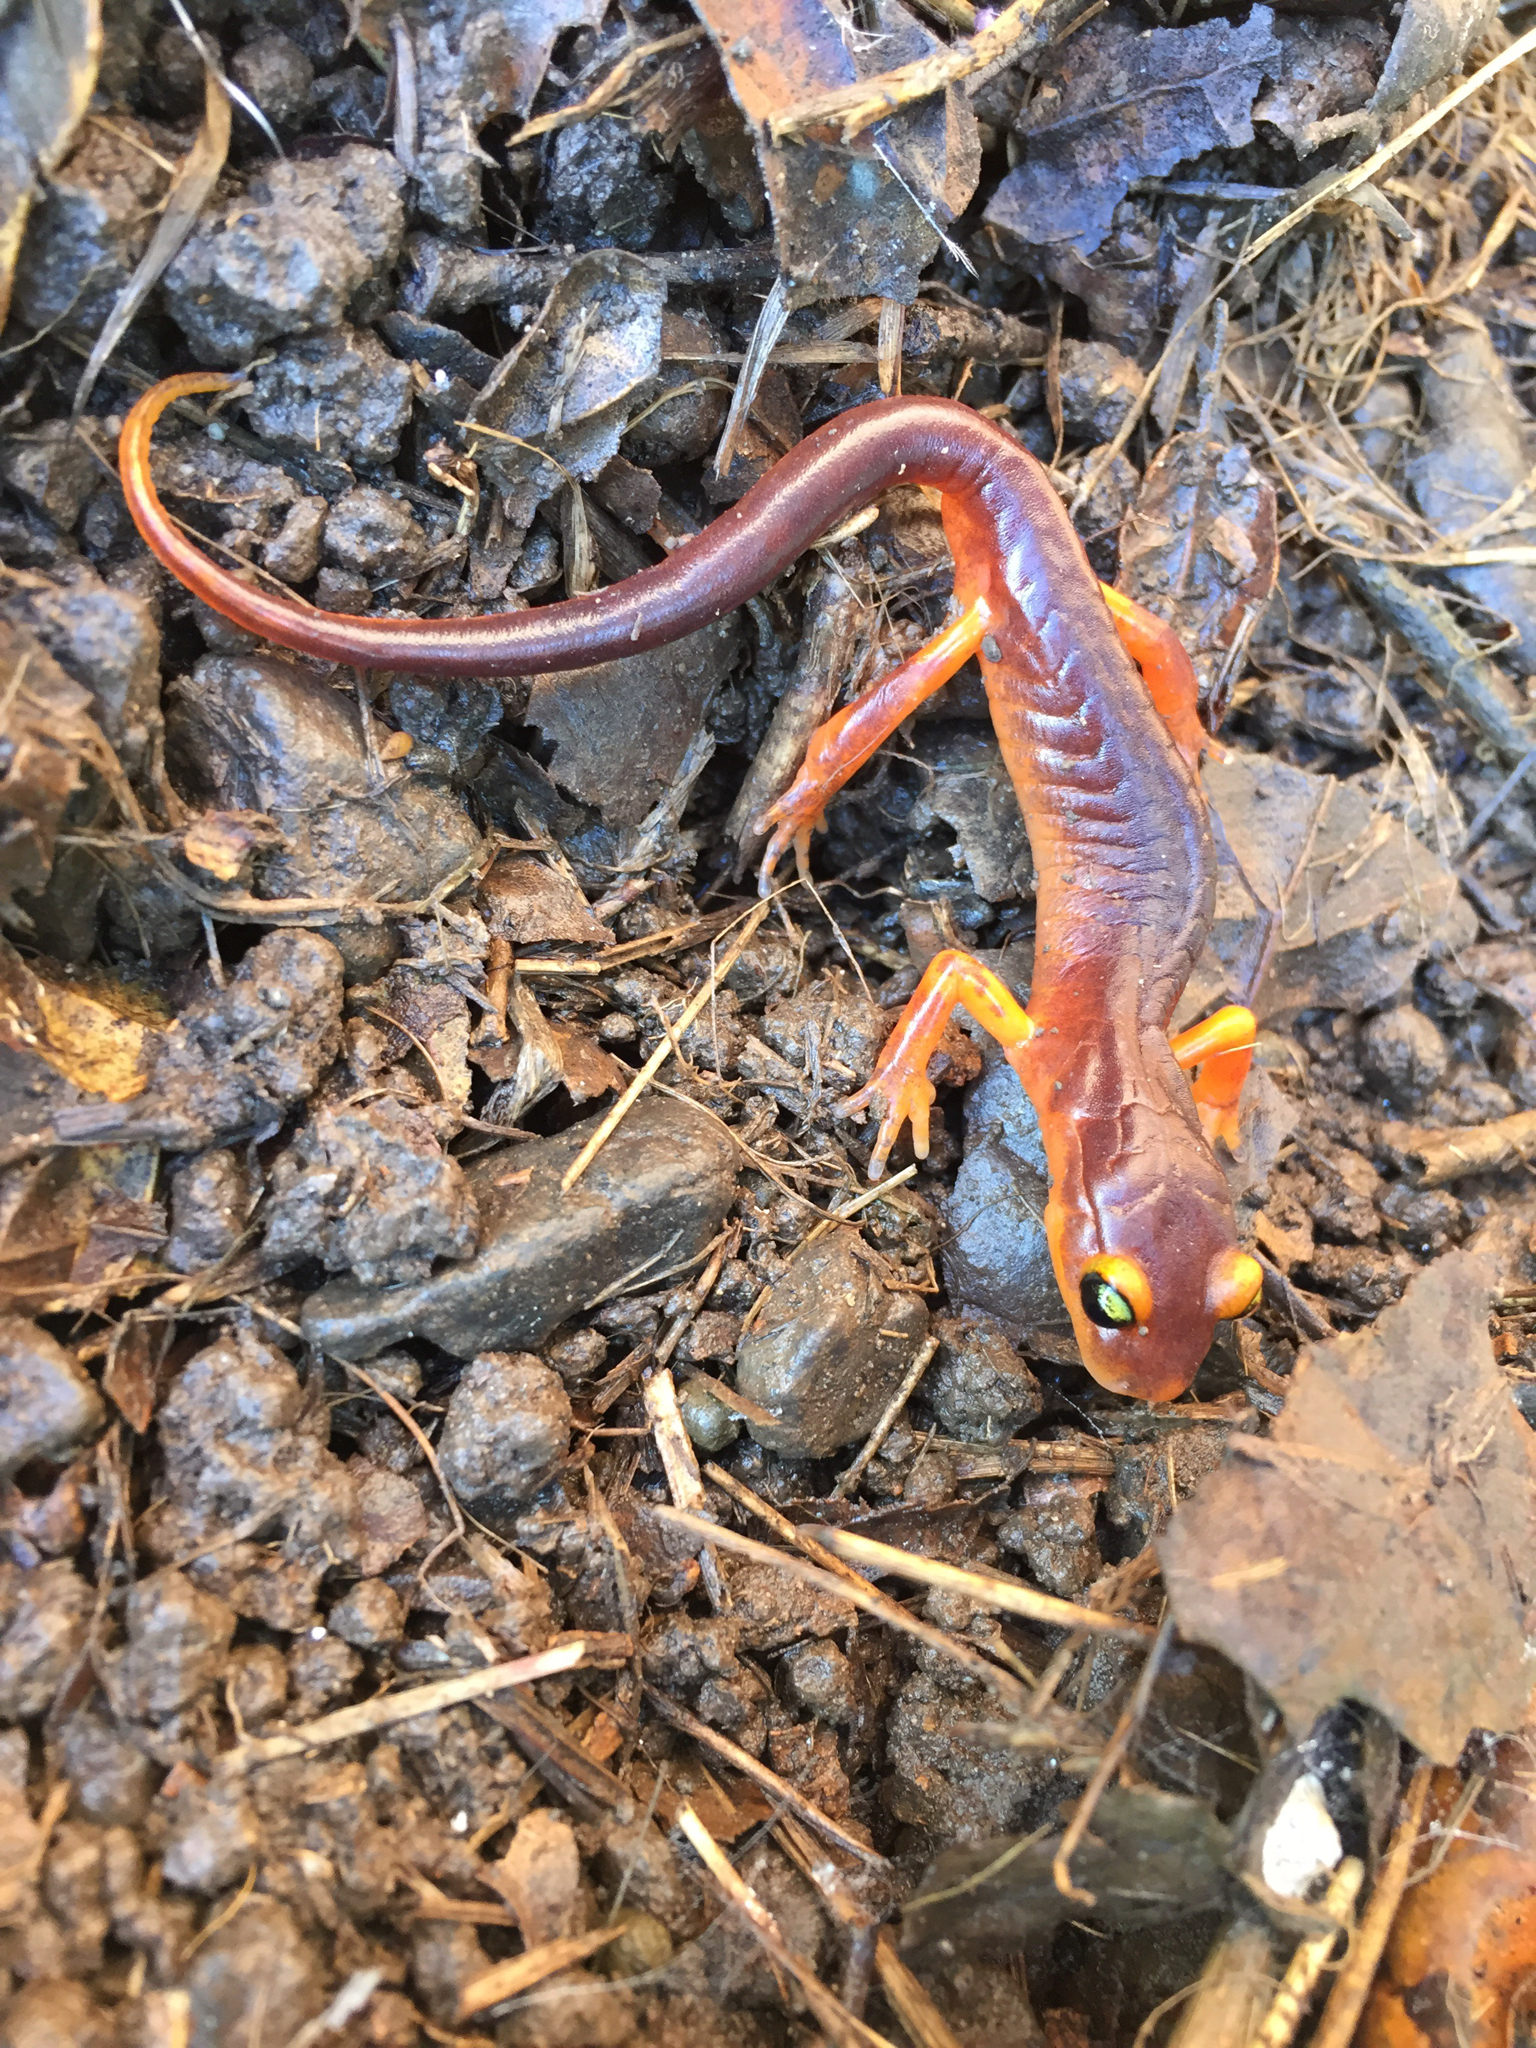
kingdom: Animalia
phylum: Chordata
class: Amphibia
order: Caudata
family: Plethodontidae
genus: Ensatina
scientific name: Ensatina eschscholtzii
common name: Ensatina
